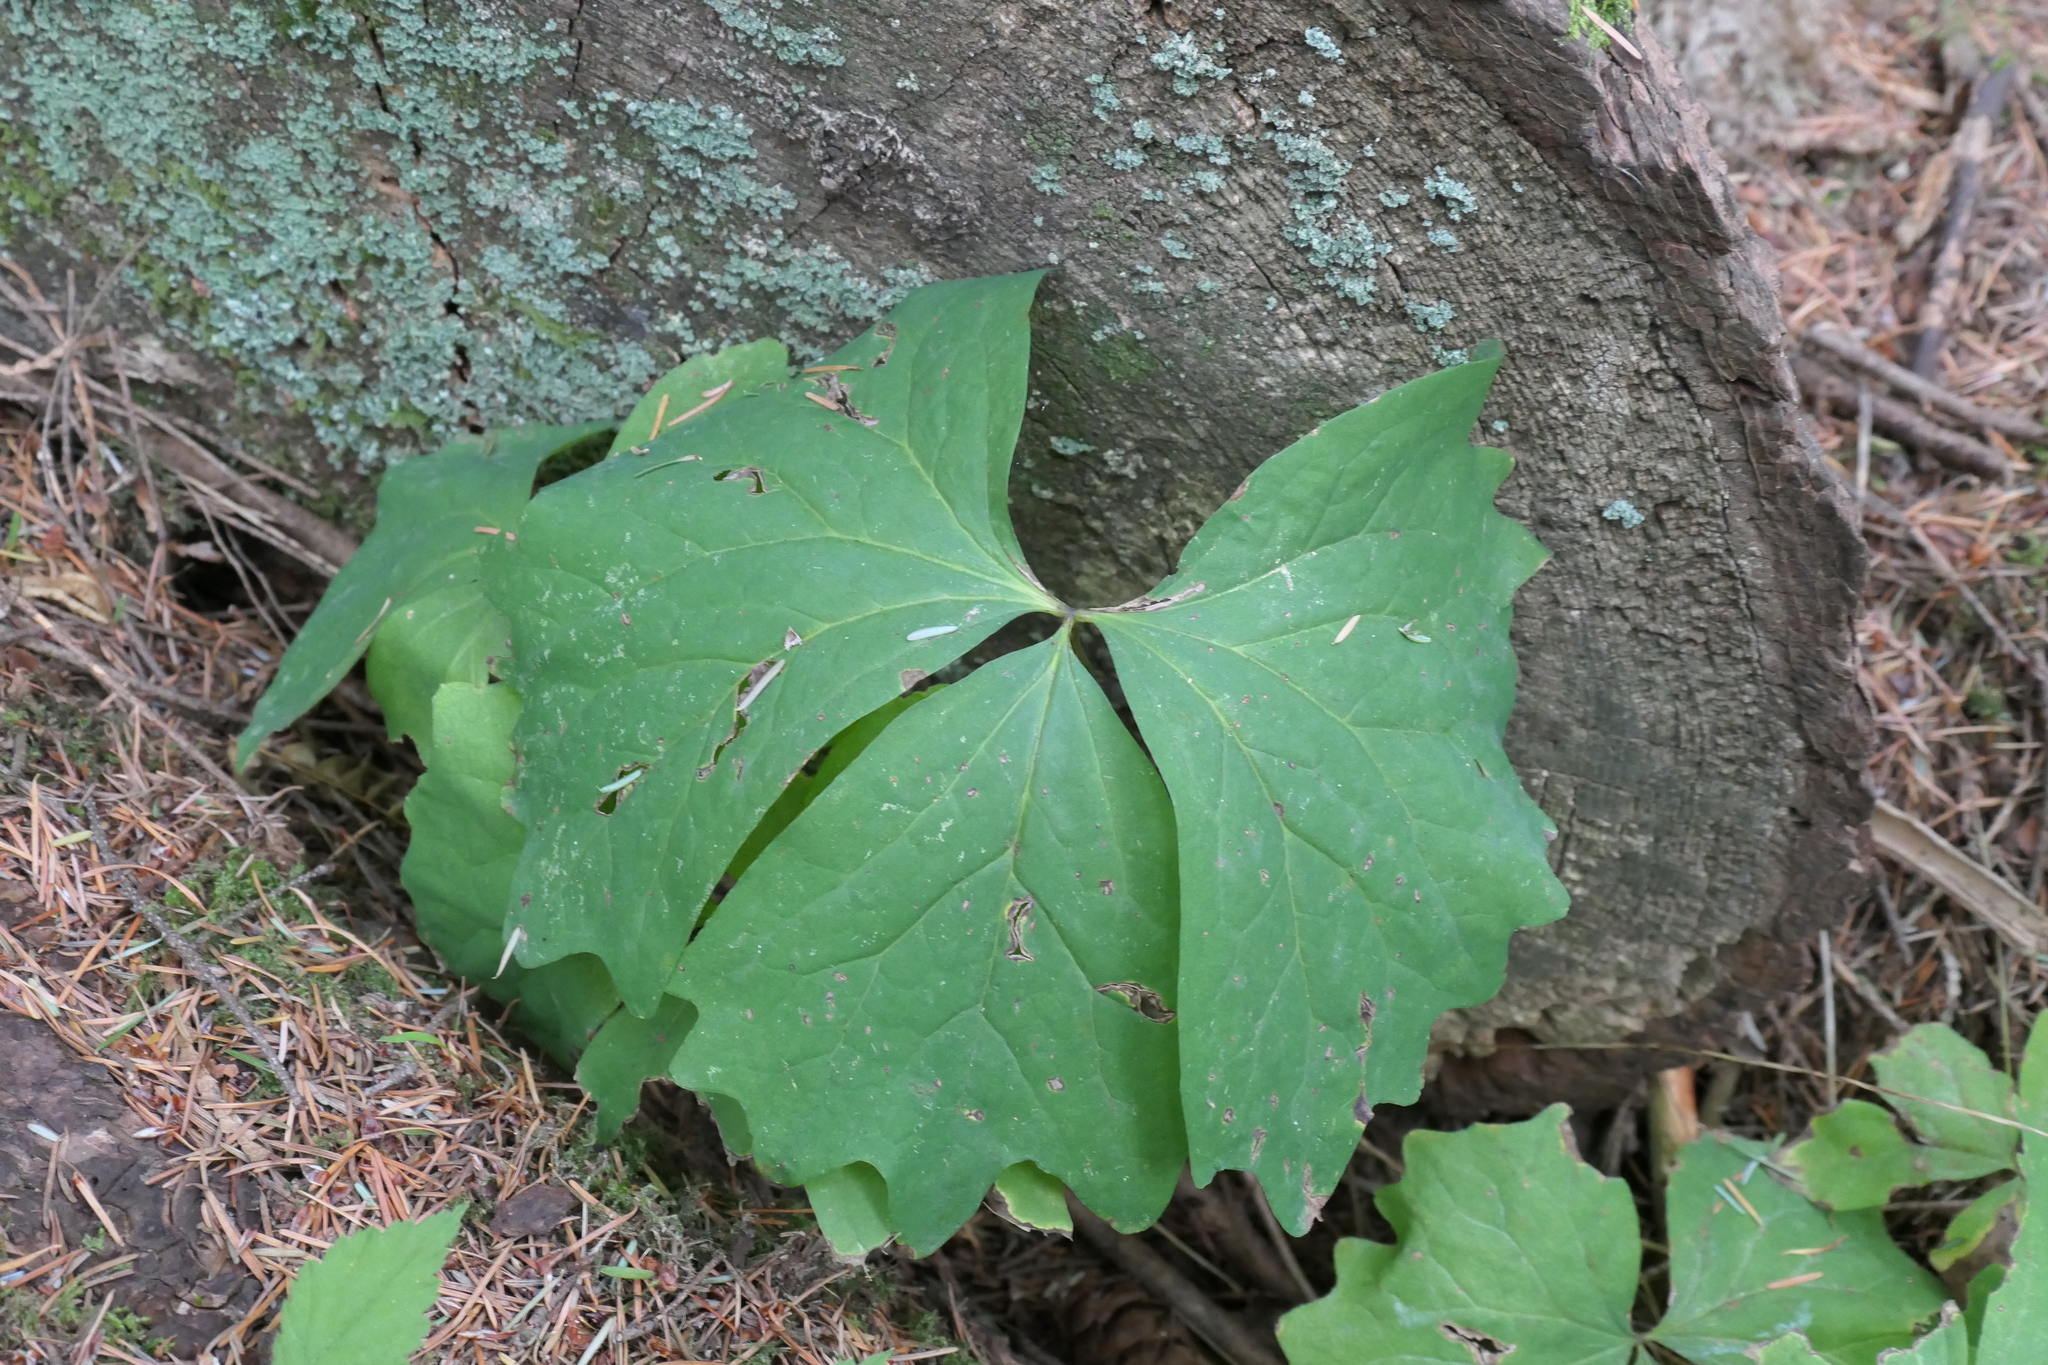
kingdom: Plantae
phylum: Tracheophyta
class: Magnoliopsida
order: Ranunculales
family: Berberidaceae
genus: Achlys
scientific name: Achlys triphylla
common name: Vanilla-leaf
